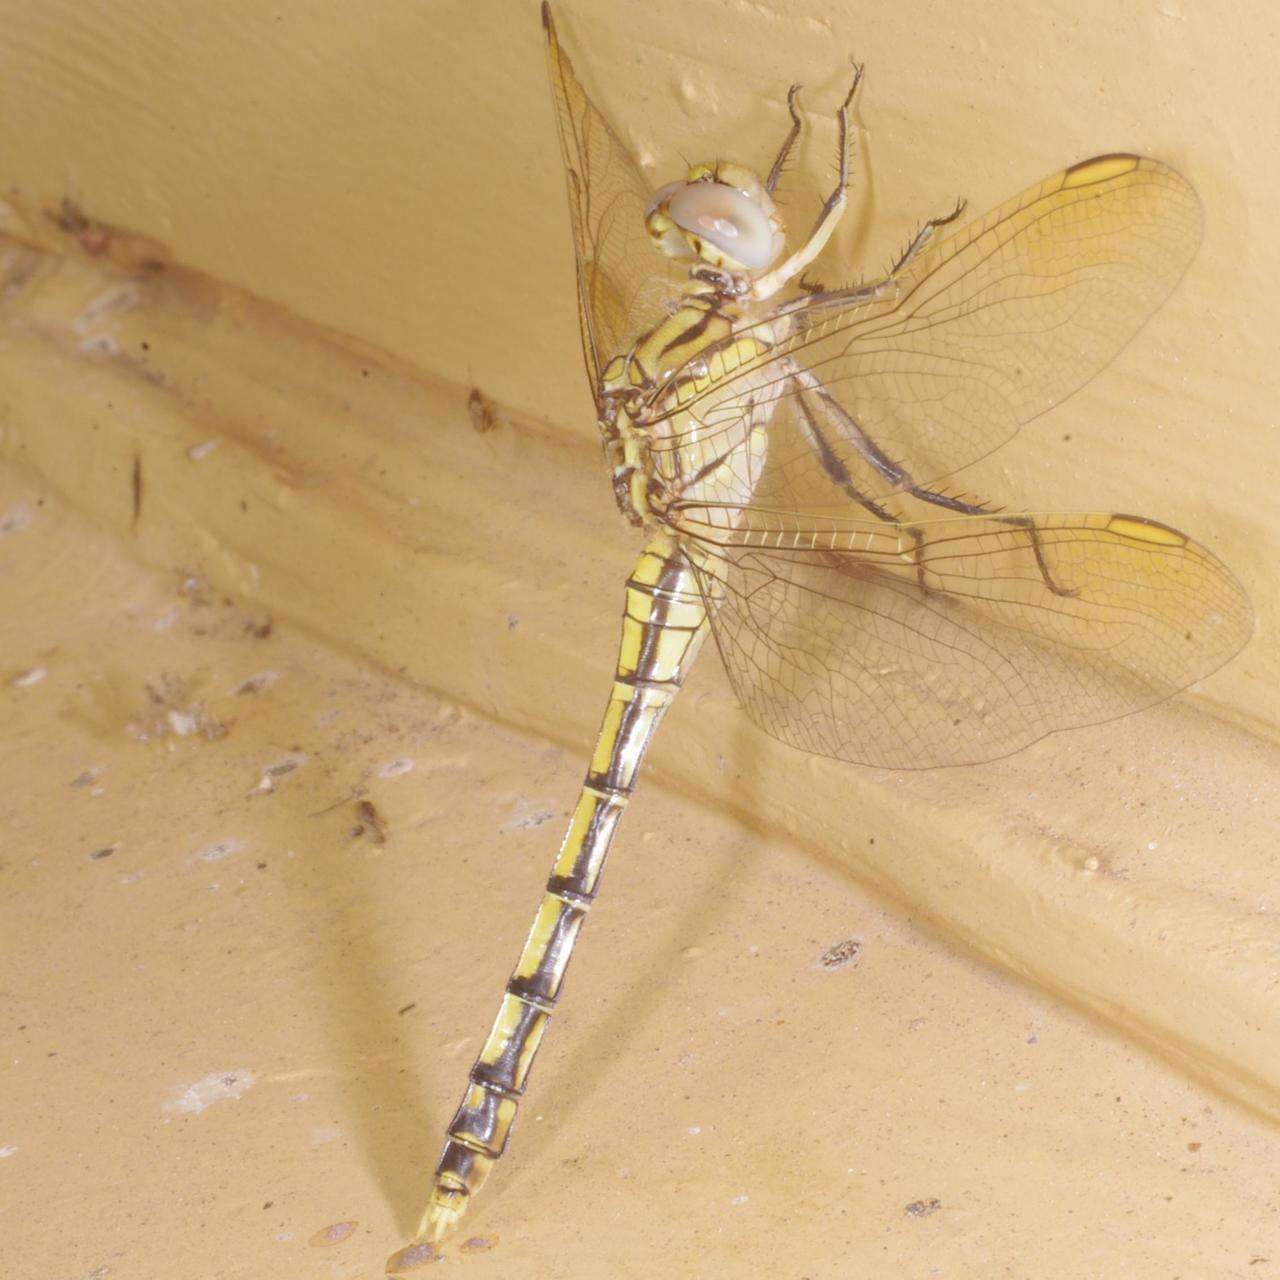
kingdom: Animalia
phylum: Arthropoda
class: Insecta
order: Odonata
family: Libellulidae
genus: Orthetrum
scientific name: Orthetrum caledonicum
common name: Blue skimmer
